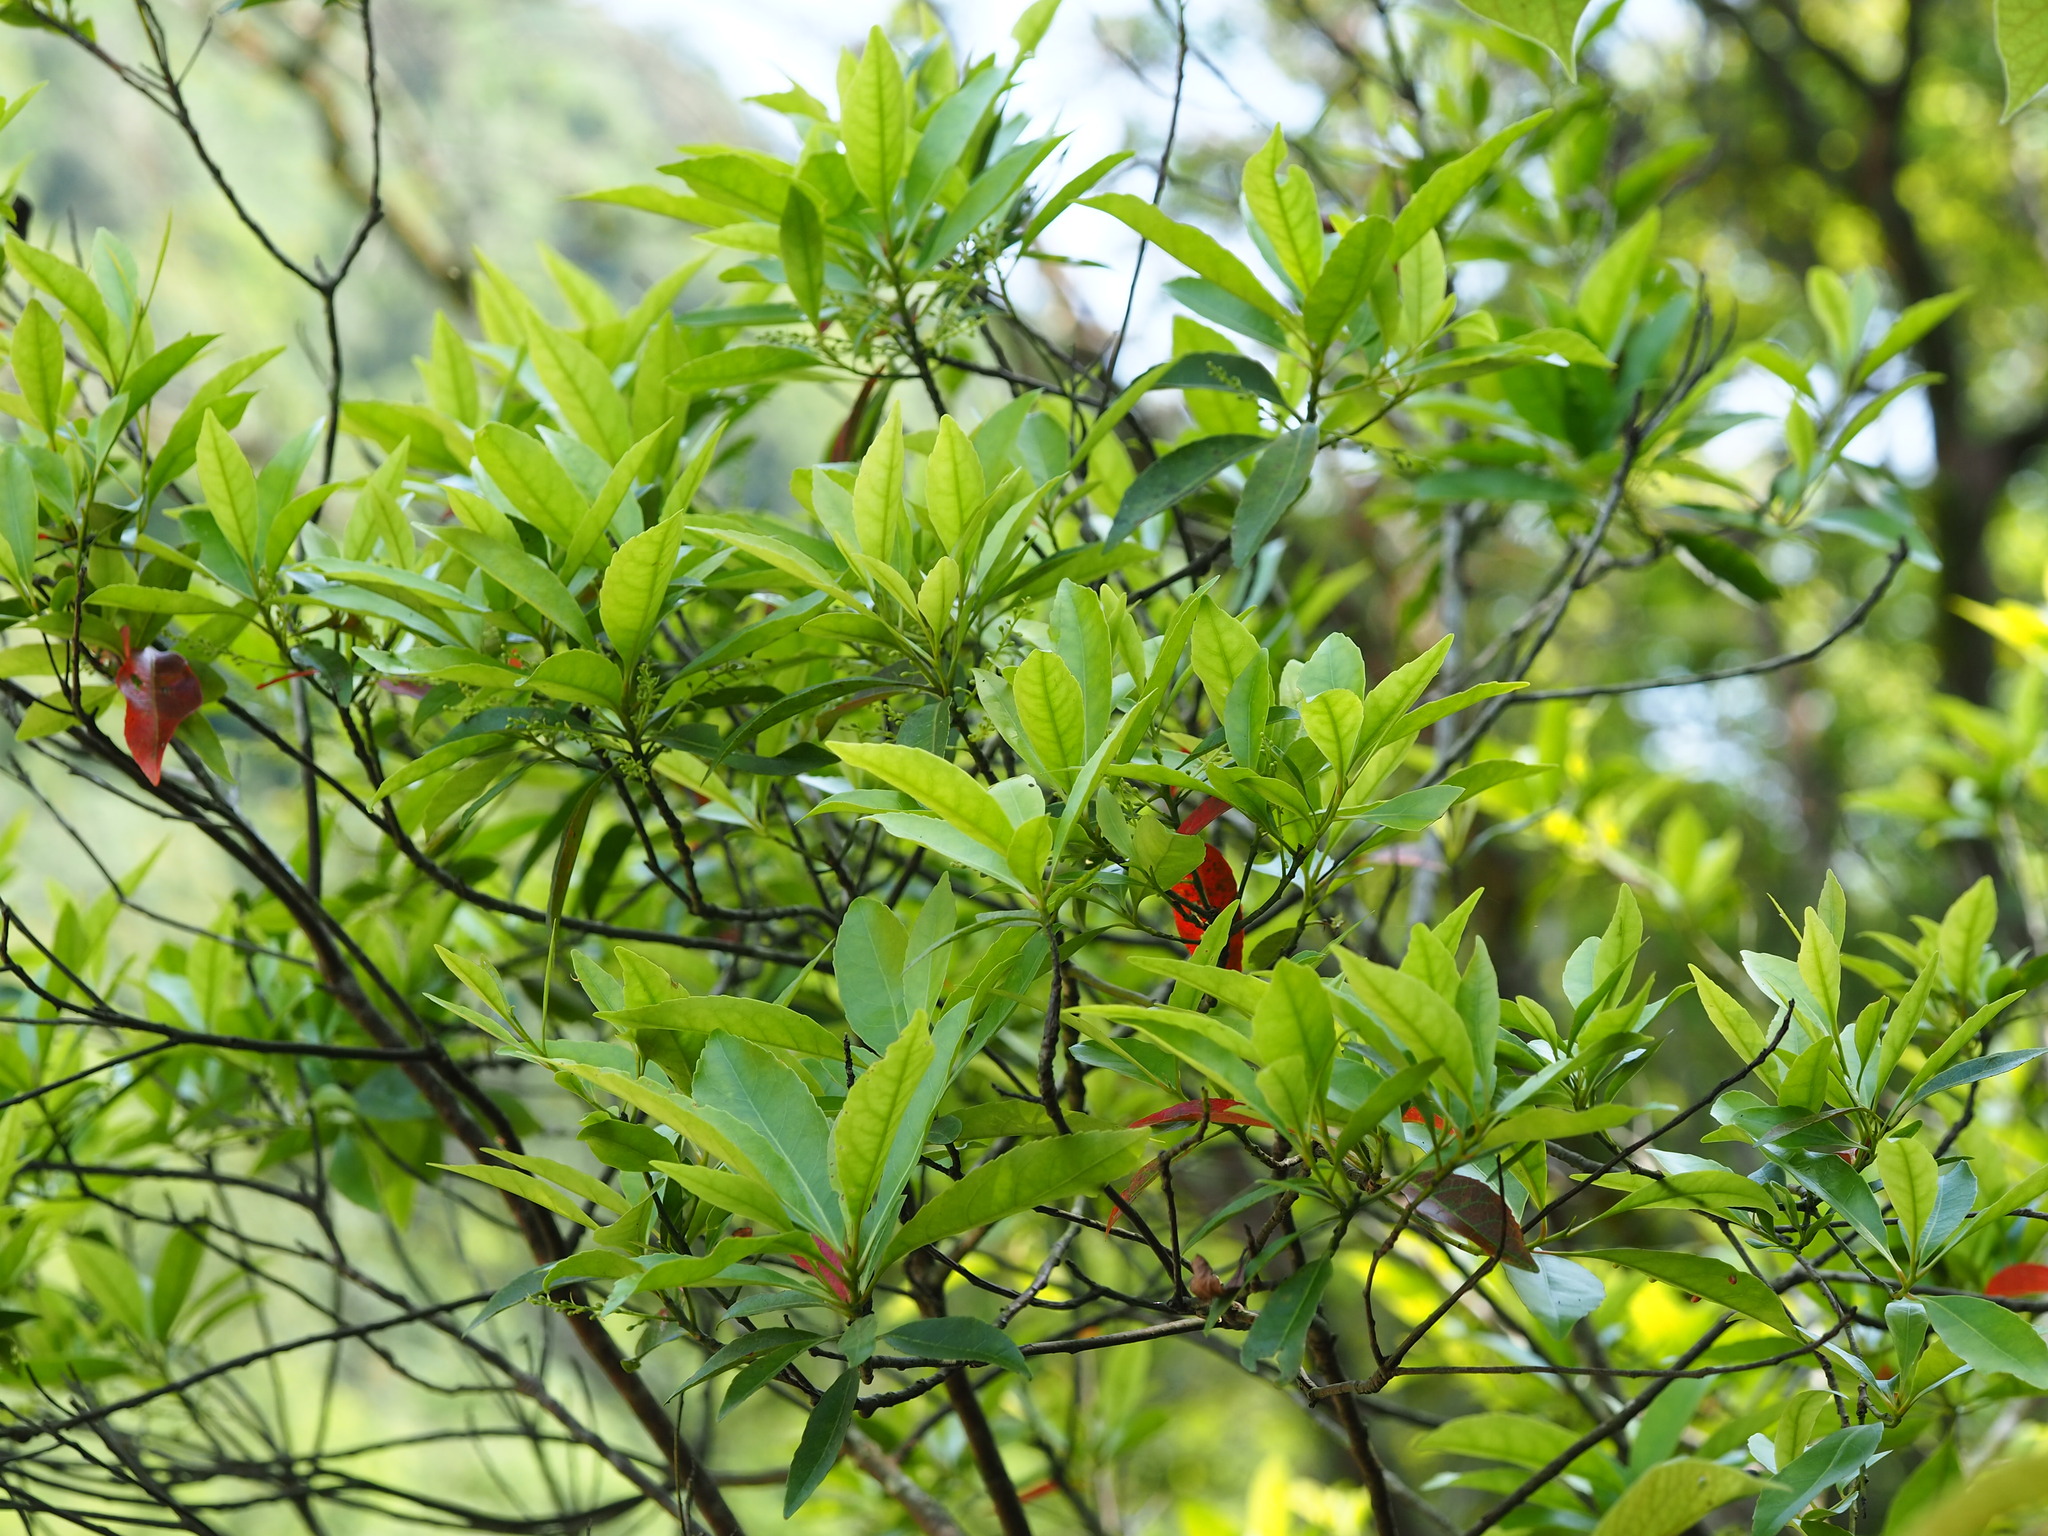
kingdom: Plantae
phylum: Tracheophyta
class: Magnoliopsida
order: Oxalidales
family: Elaeocarpaceae
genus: Elaeocarpus
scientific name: Elaeocarpus decipiens
